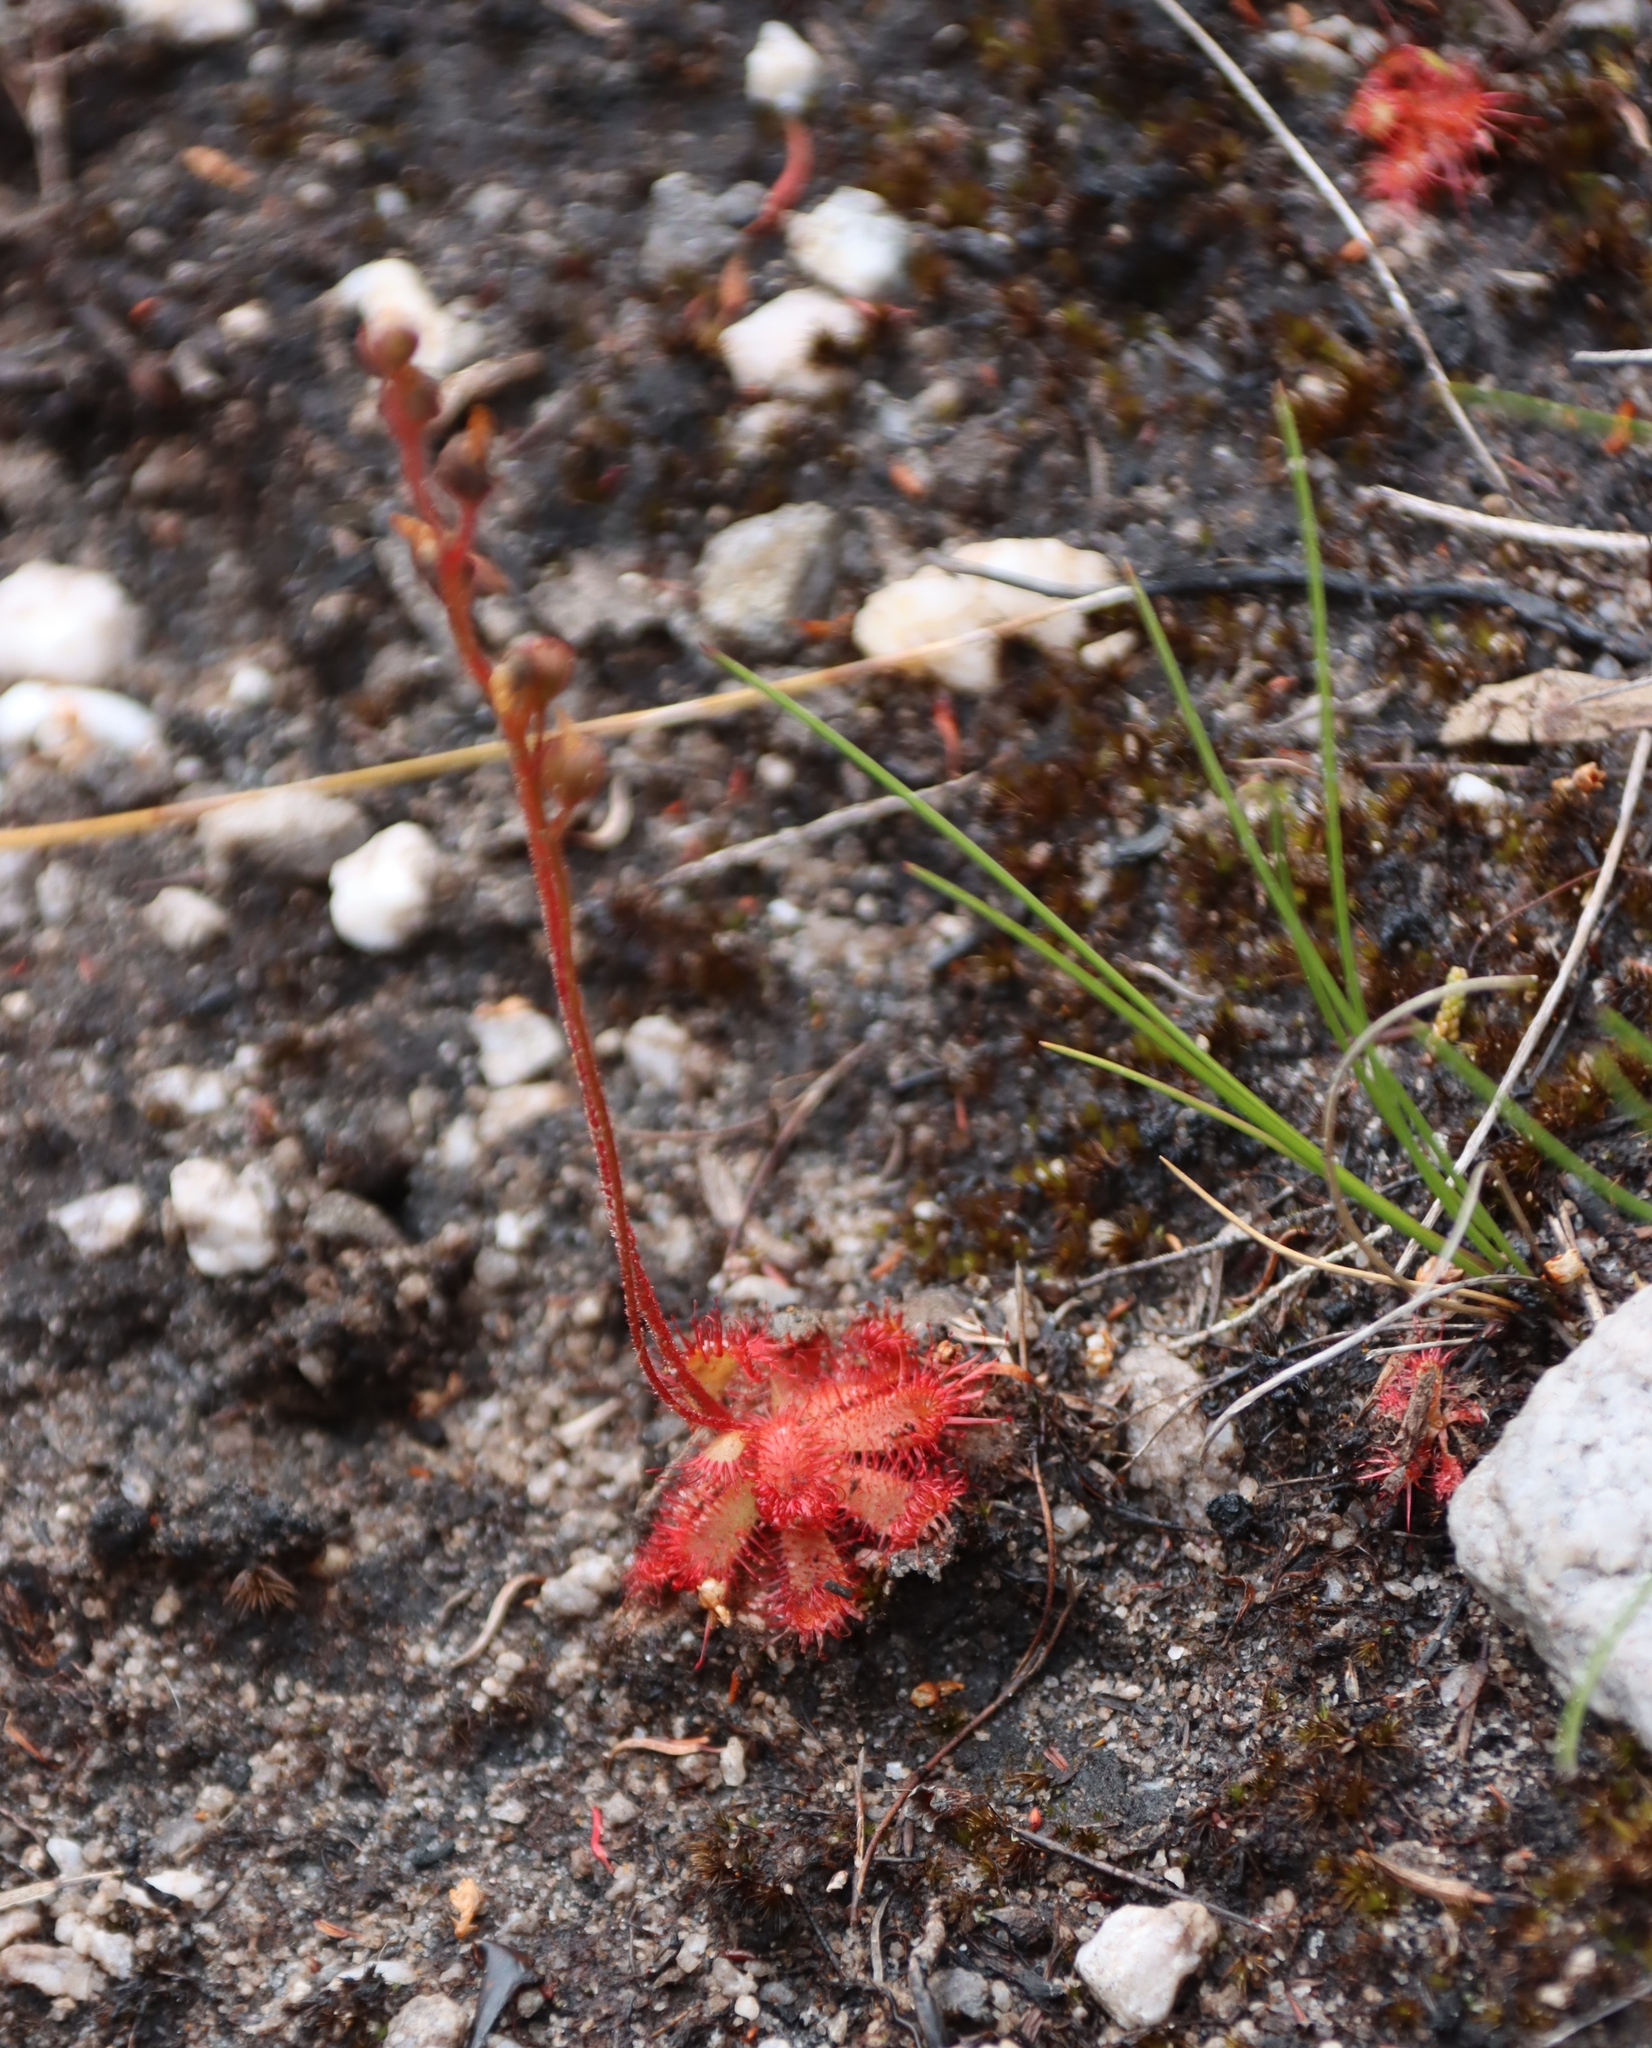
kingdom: Plantae
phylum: Tracheophyta
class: Magnoliopsida
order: Caryophyllales
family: Droseraceae
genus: Drosera
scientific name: Drosera trinervia
